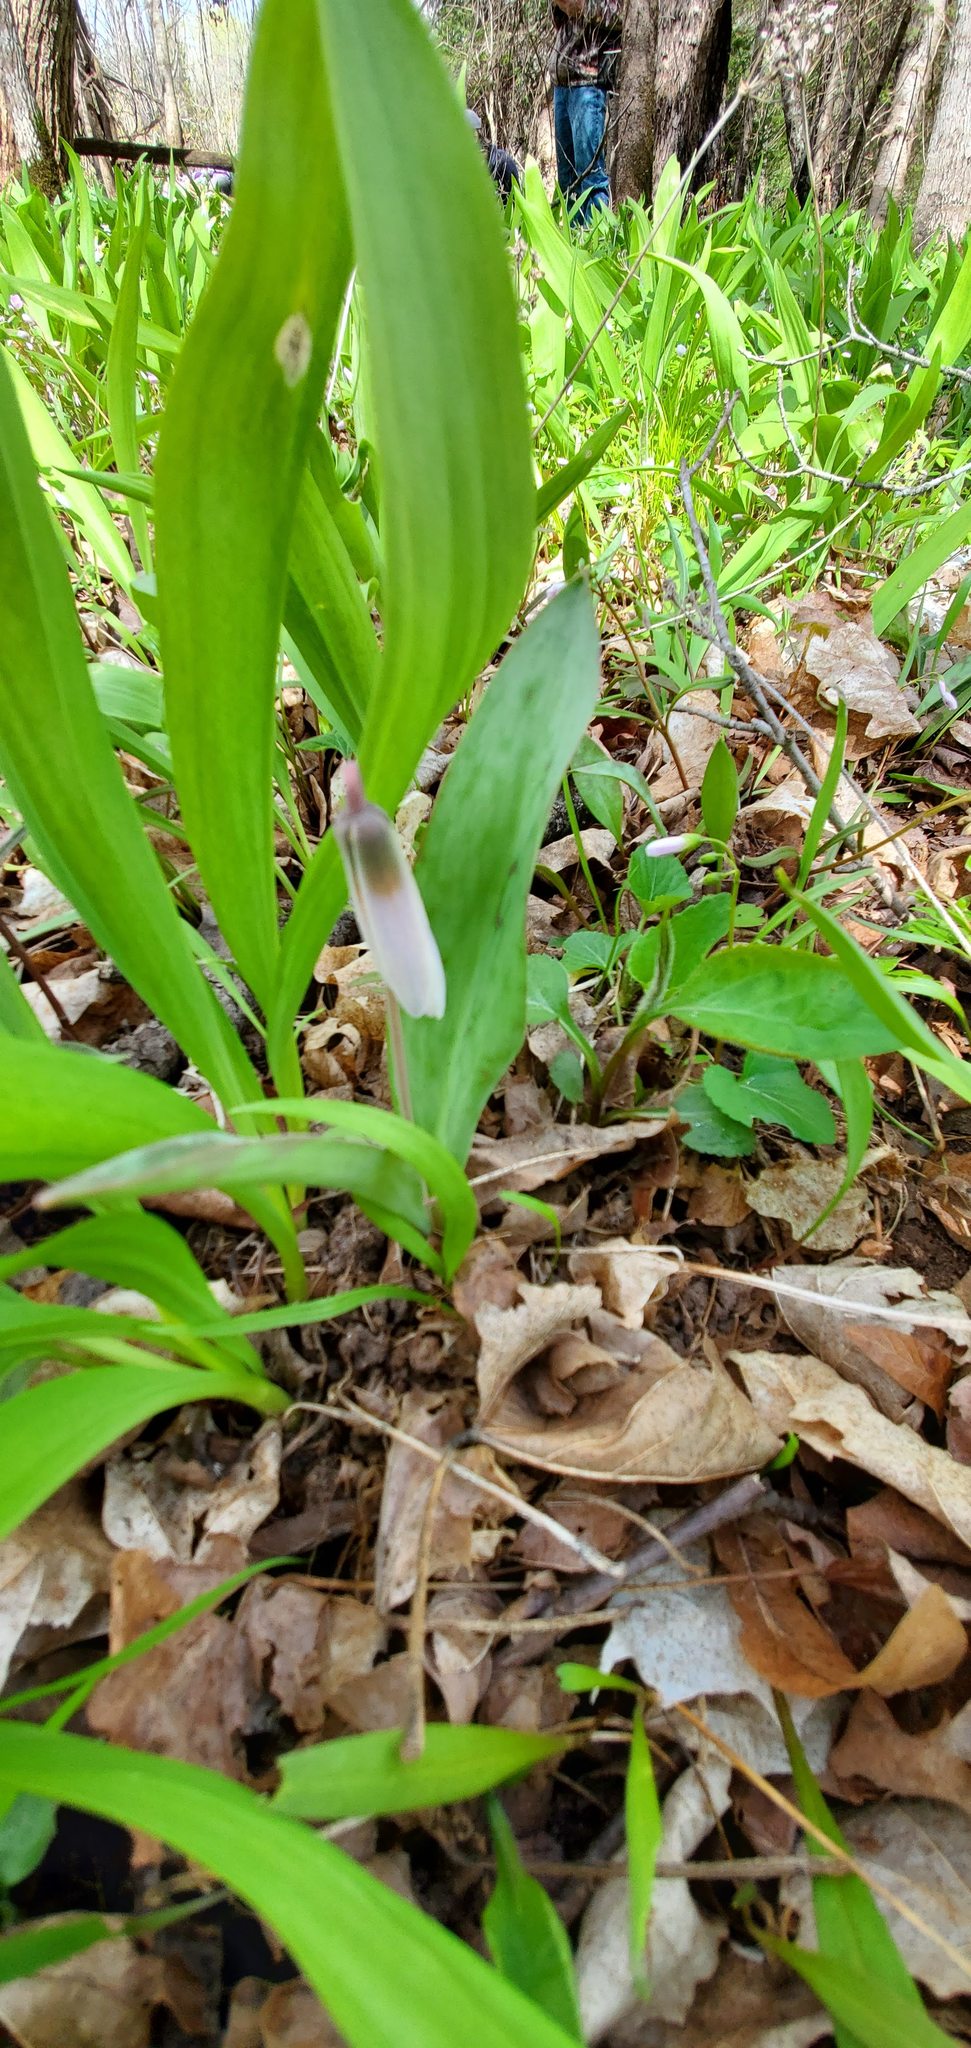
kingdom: Plantae
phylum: Tracheophyta
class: Liliopsida
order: Liliales
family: Liliaceae
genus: Erythronium
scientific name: Erythronium albidum
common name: White trout-lily
